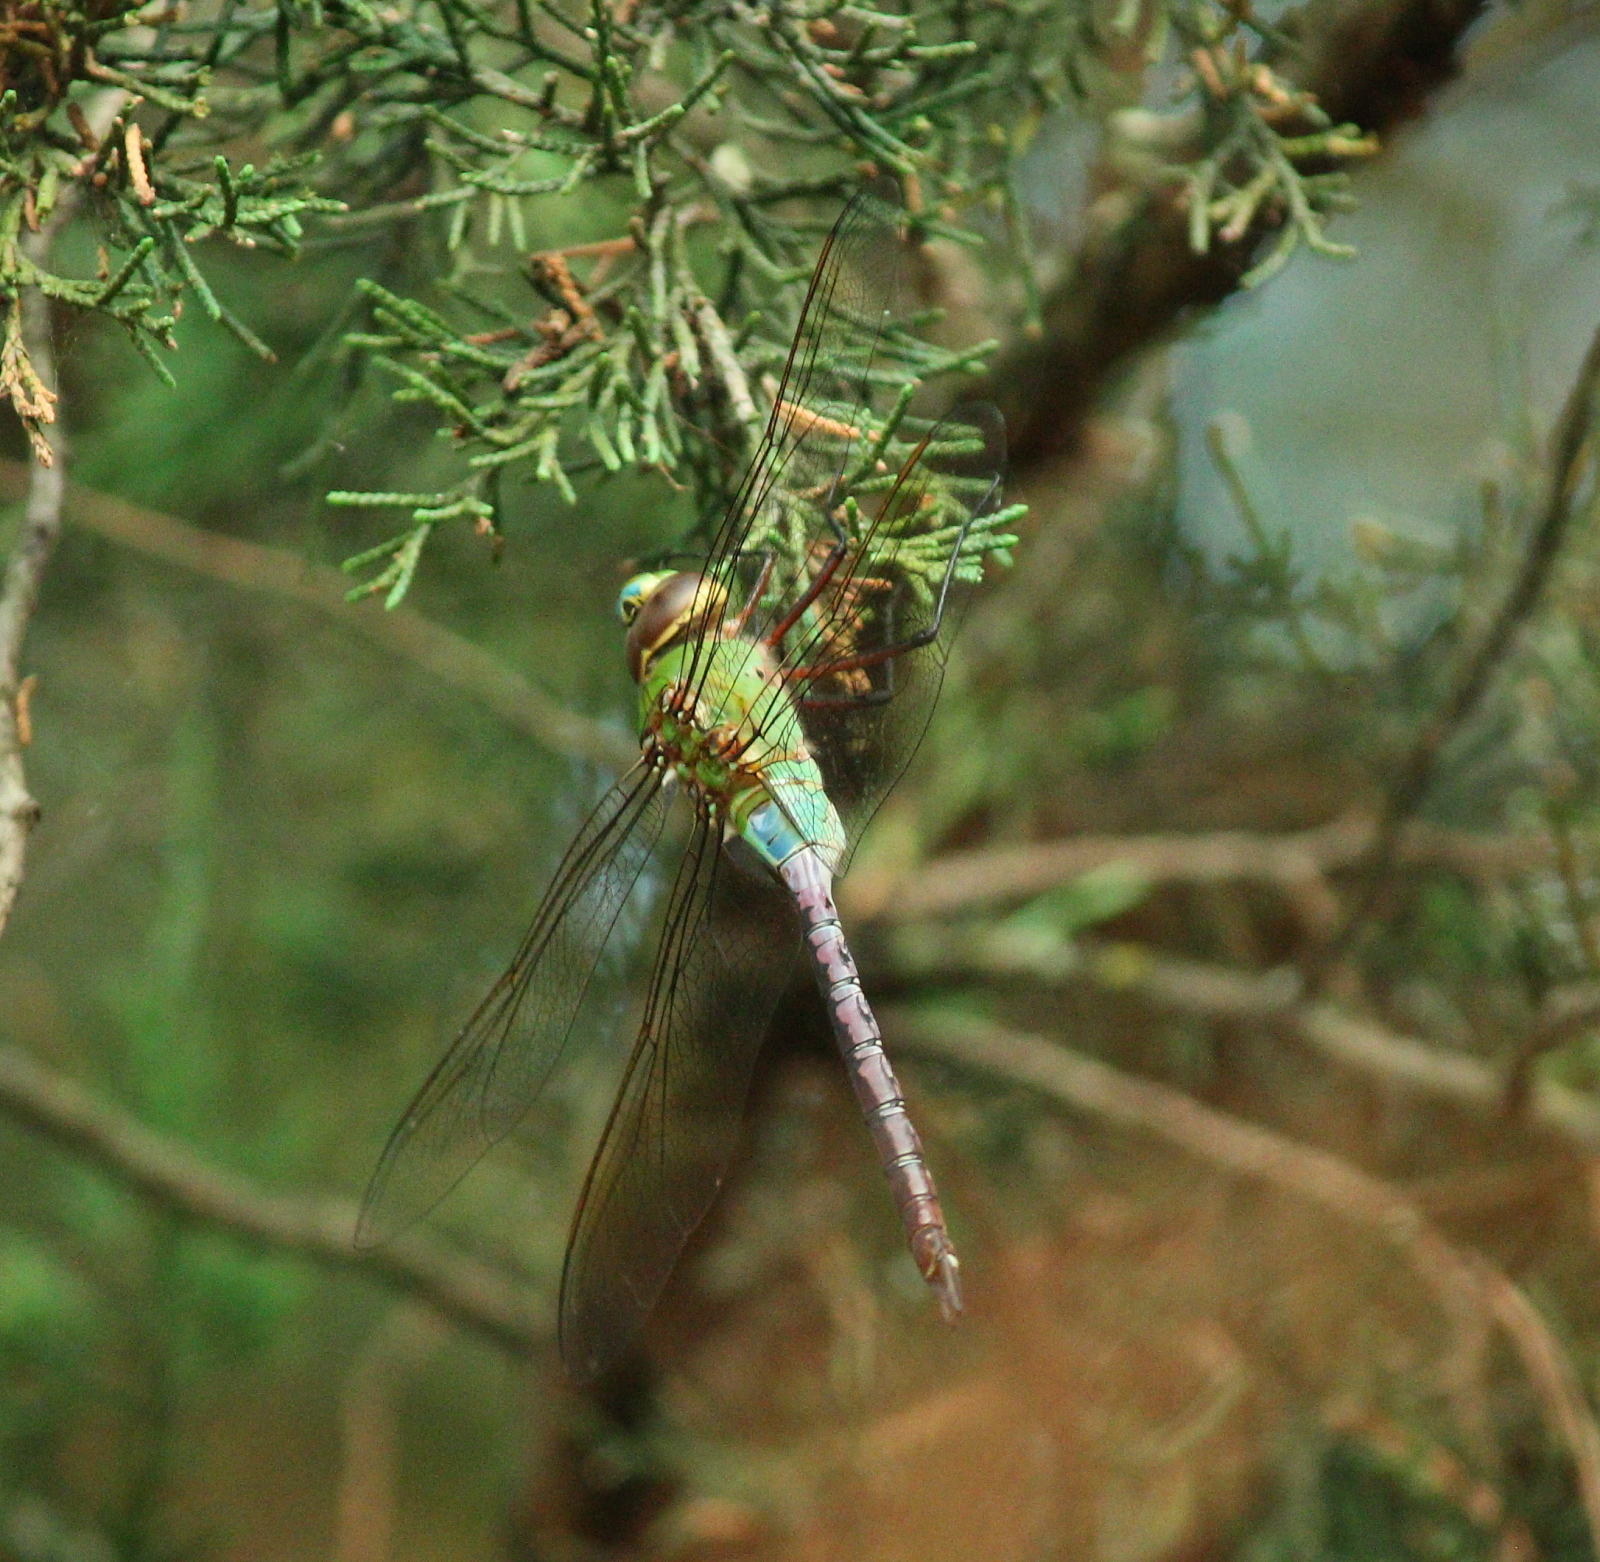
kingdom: Animalia
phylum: Arthropoda
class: Insecta
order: Odonata
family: Aeshnidae
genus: Anax
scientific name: Anax junius
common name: Common green darner
